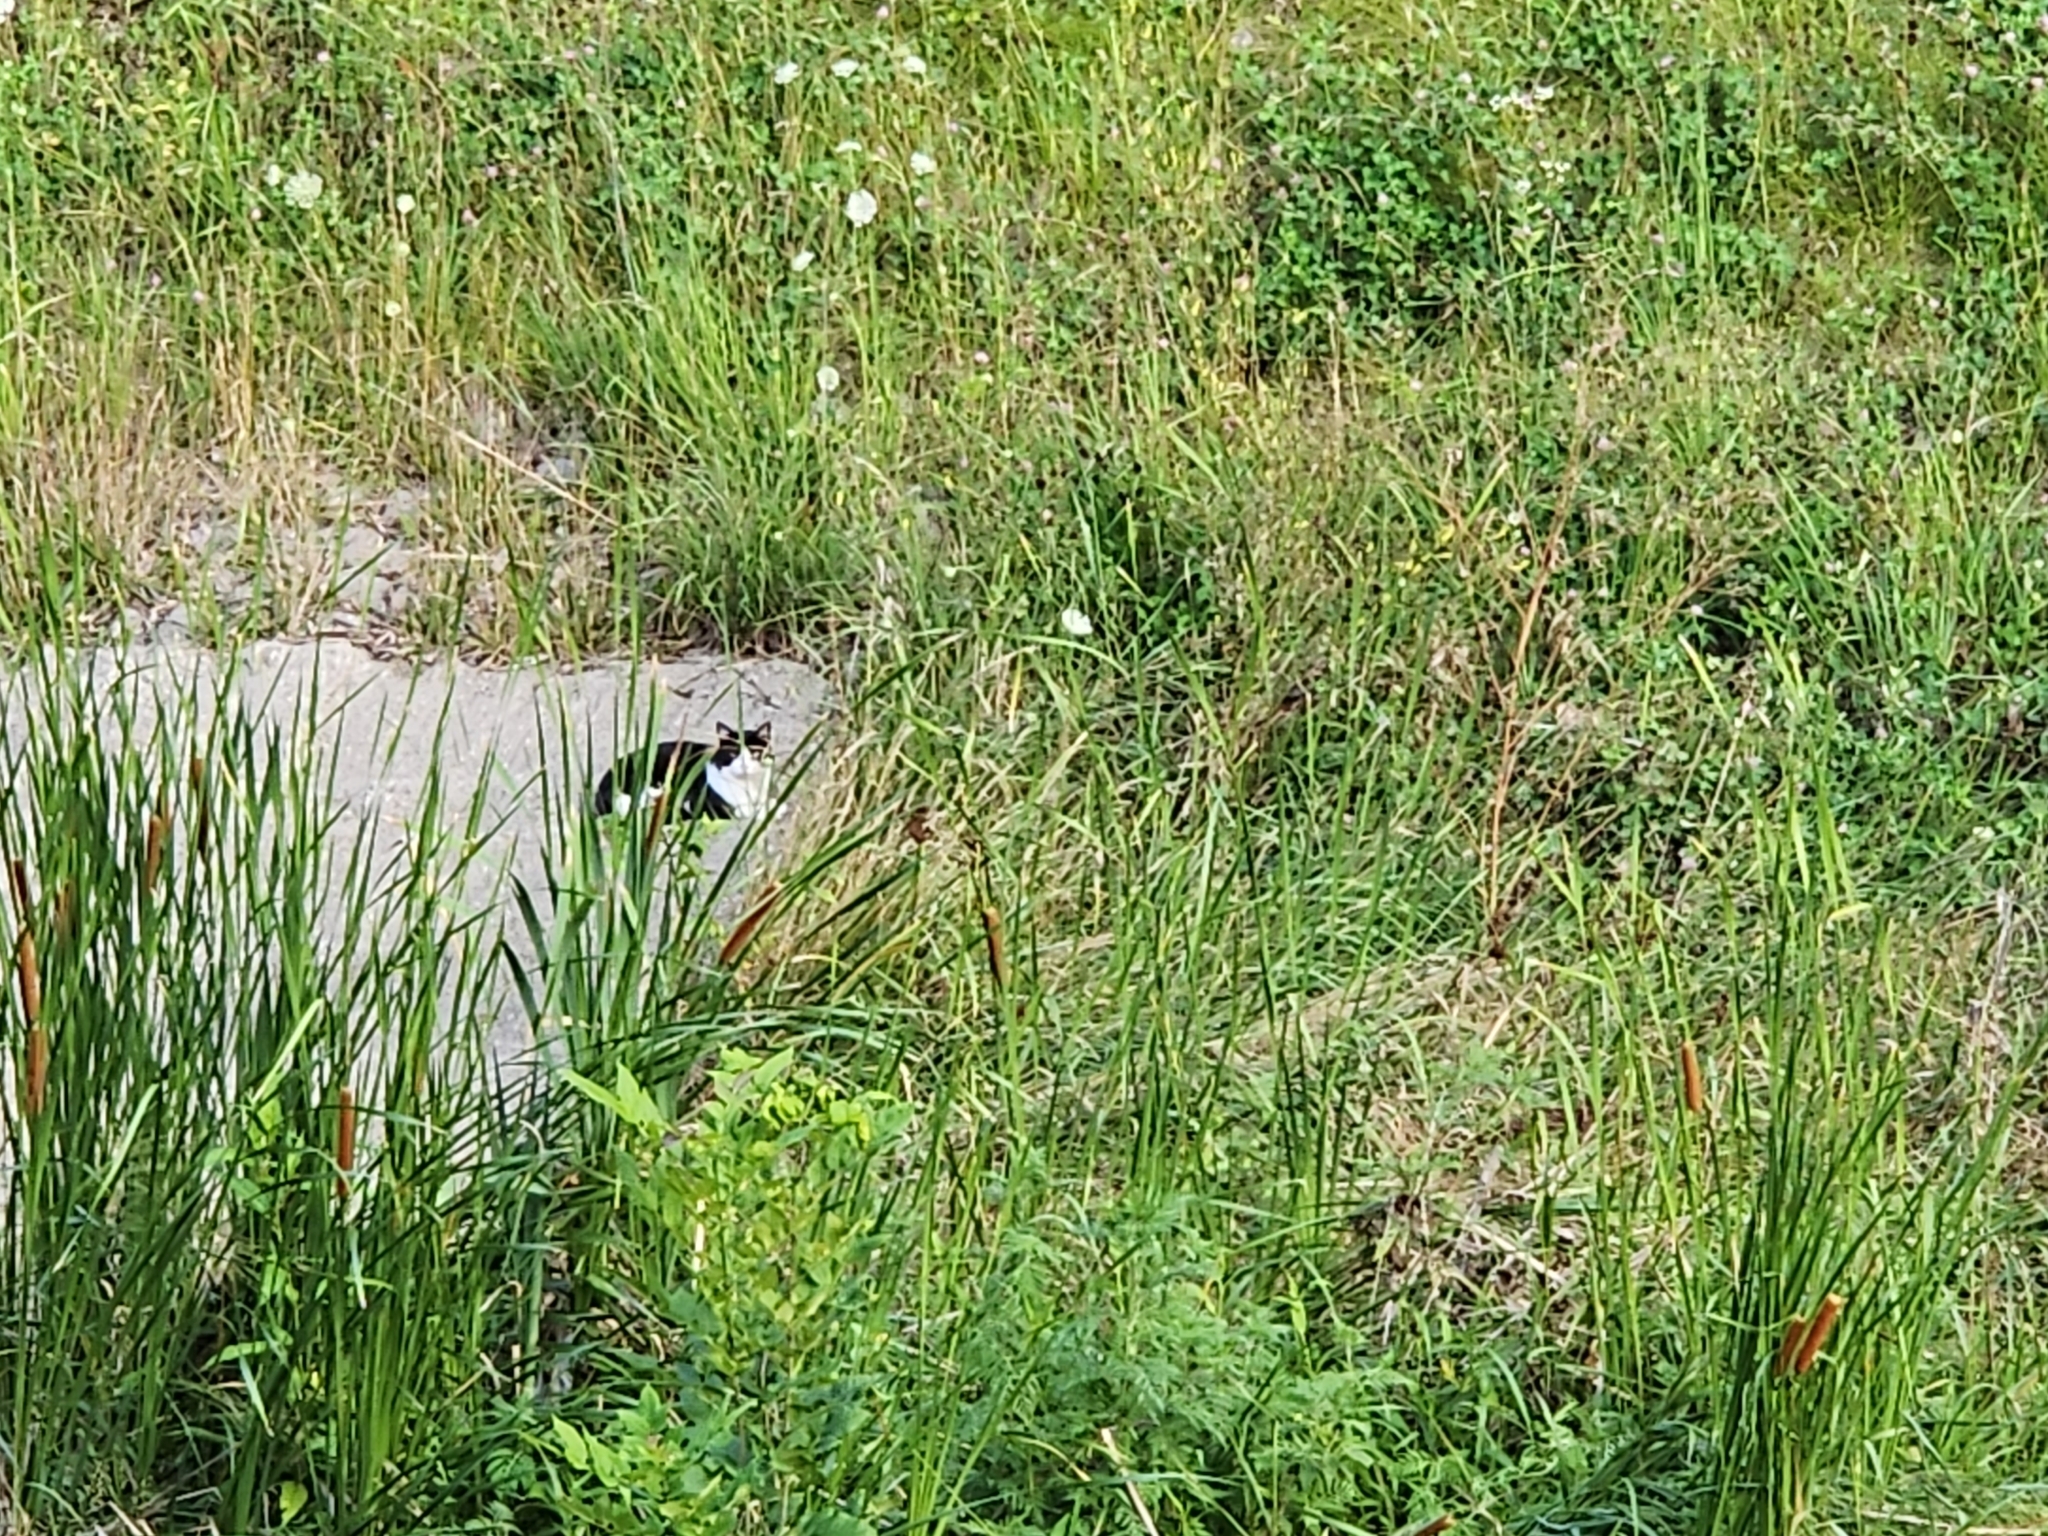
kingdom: Animalia
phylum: Chordata
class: Mammalia
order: Carnivora
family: Felidae
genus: Felis
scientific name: Felis catus
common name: Domestic cat
